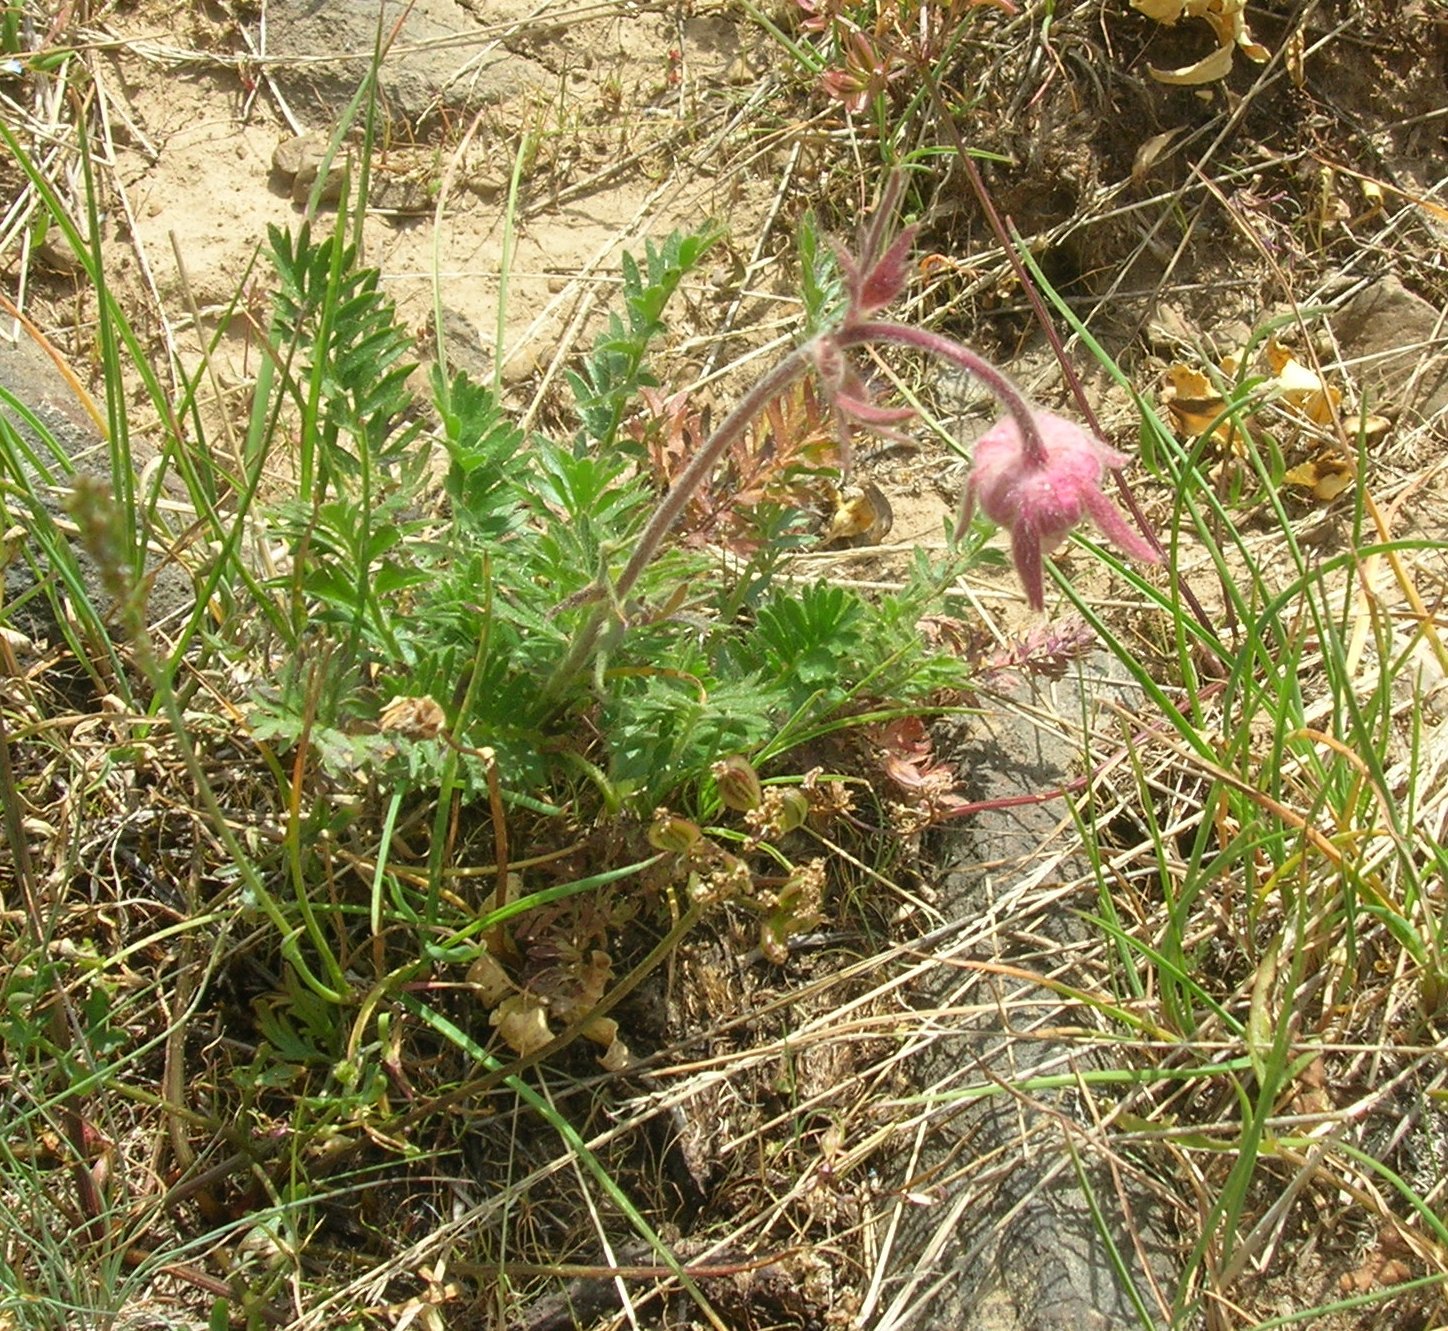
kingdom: Plantae
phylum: Tracheophyta
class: Magnoliopsida
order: Rosales
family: Rosaceae
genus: Geum
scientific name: Geum triflorum
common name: Old man's whiskers
